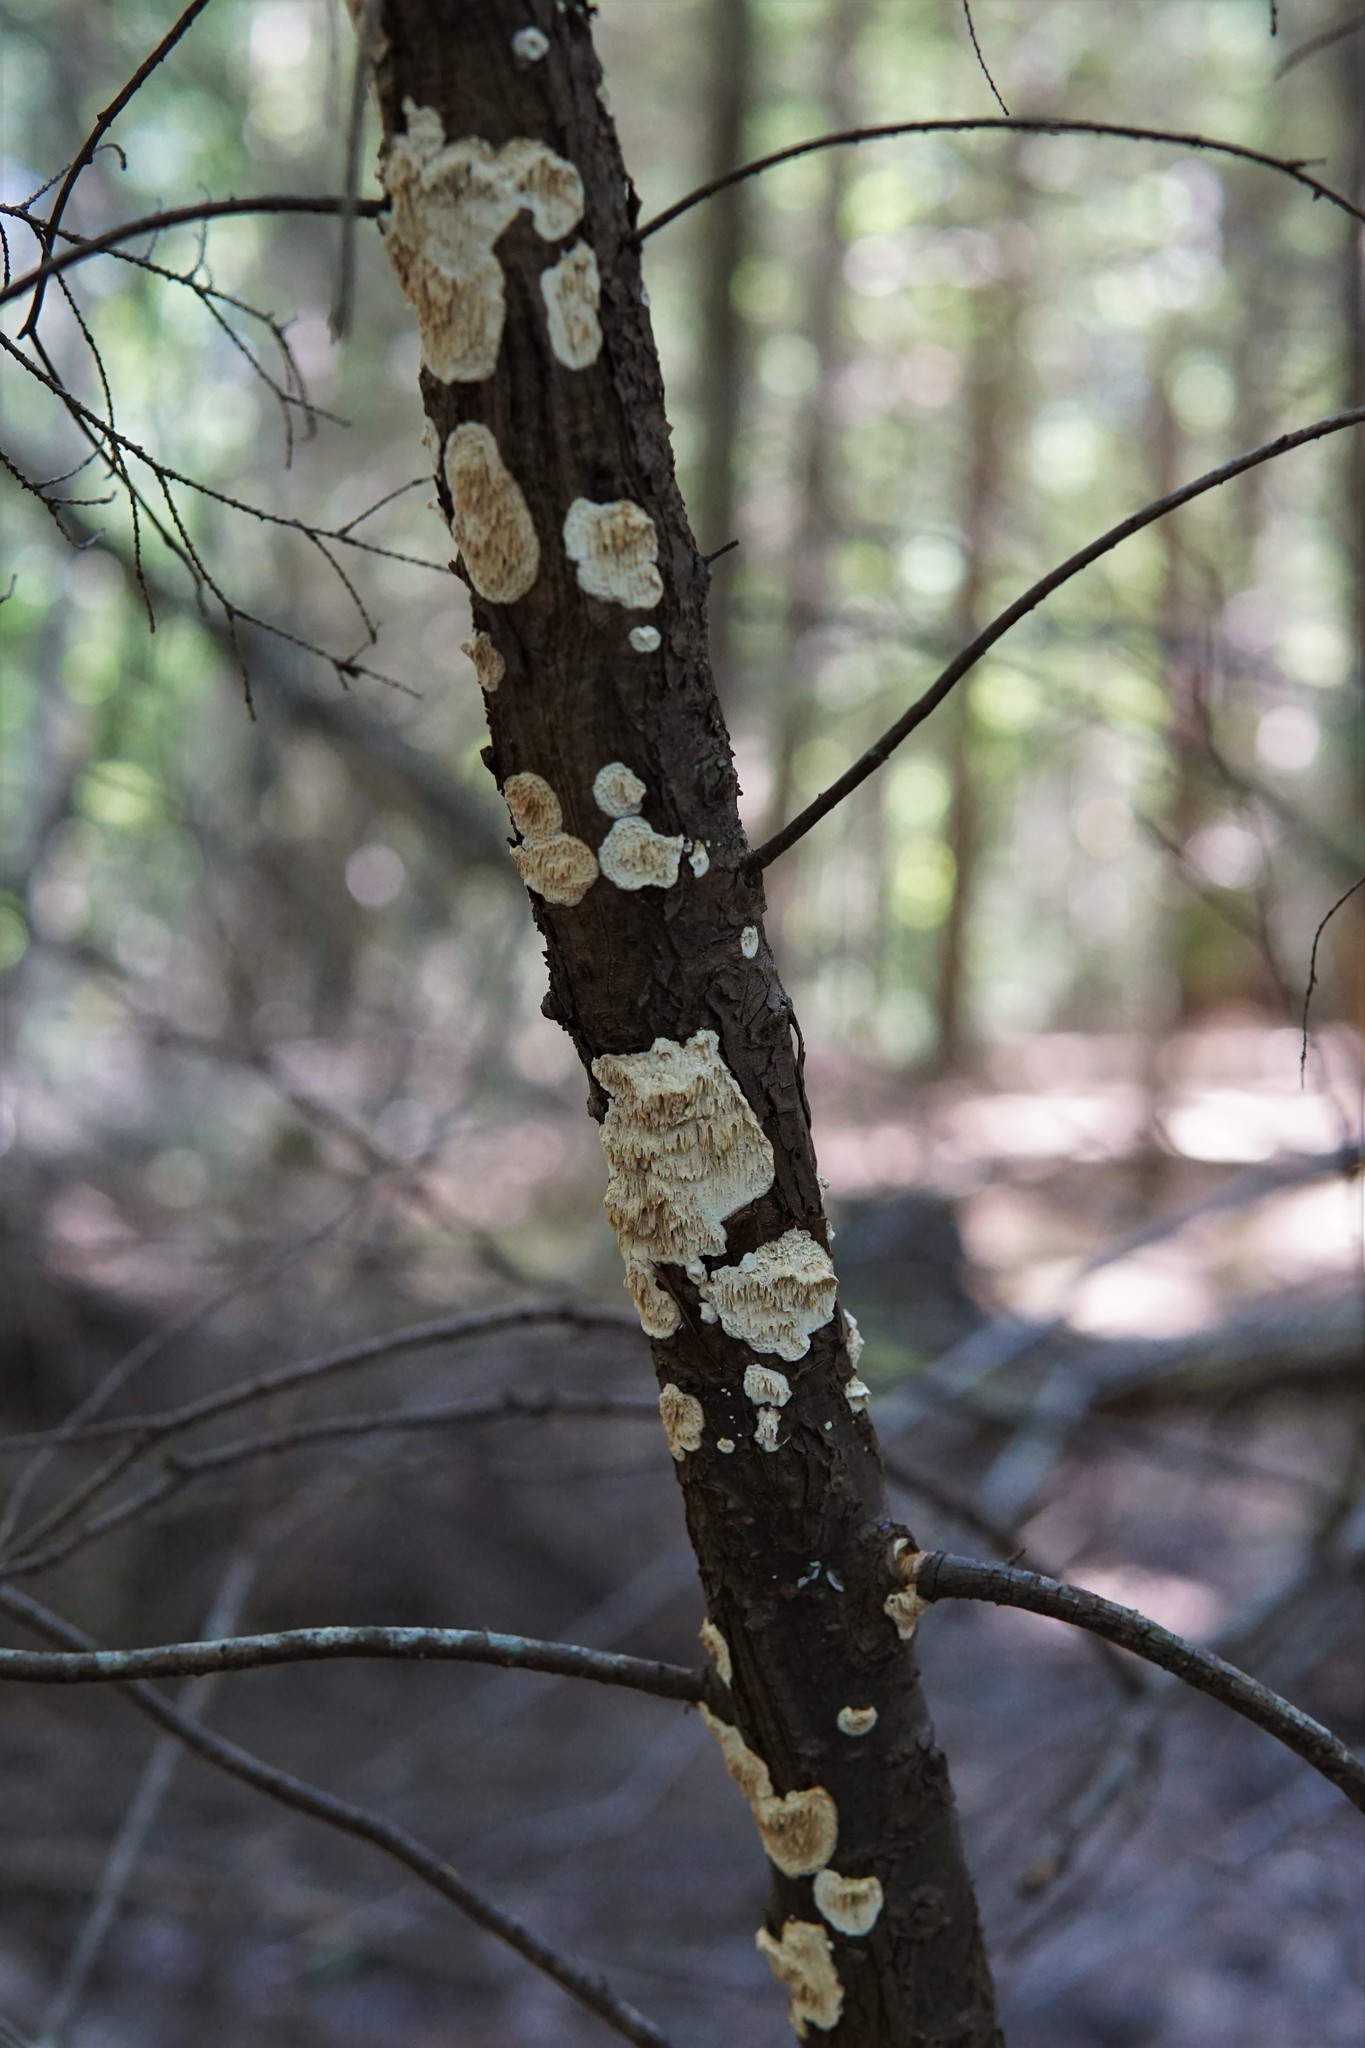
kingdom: Fungi
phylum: Basidiomycota
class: Agaricomycetes
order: Polyporales
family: Irpicaceae
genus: Irpex
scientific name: Irpex lacteus
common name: Milk-white toothed polypore
